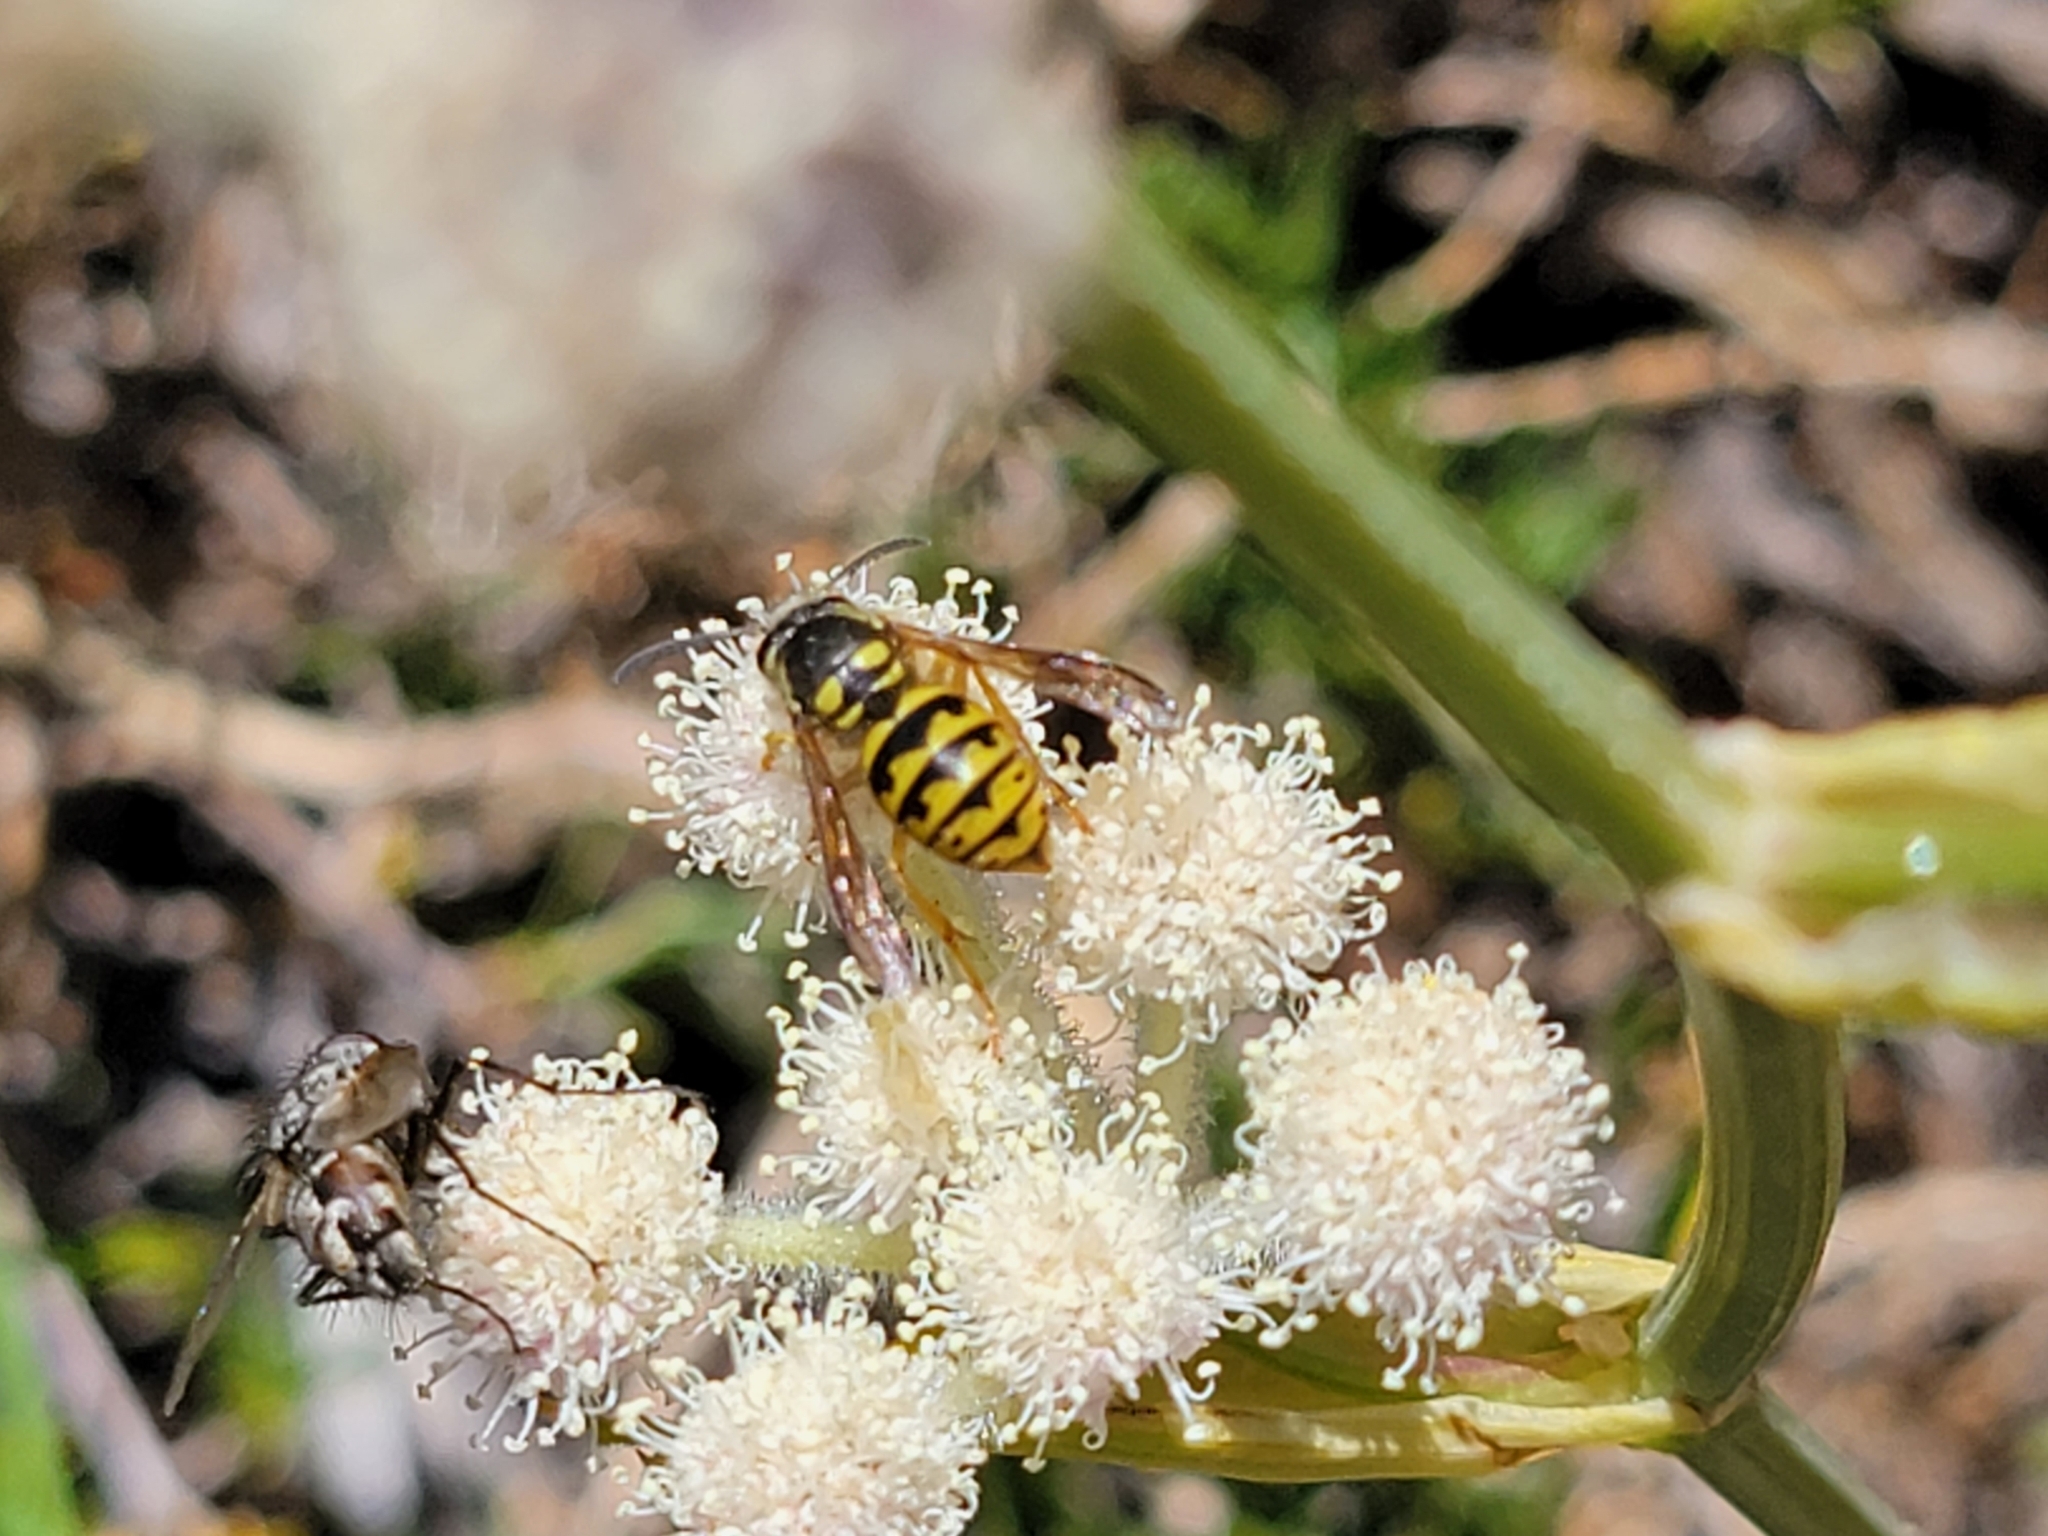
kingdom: Animalia
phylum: Arthropoda
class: Insecta
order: Hymenoptera
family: Vespidae
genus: Dolichovespula
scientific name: Dolichovespula arenaria
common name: Aerial yellowjacket
